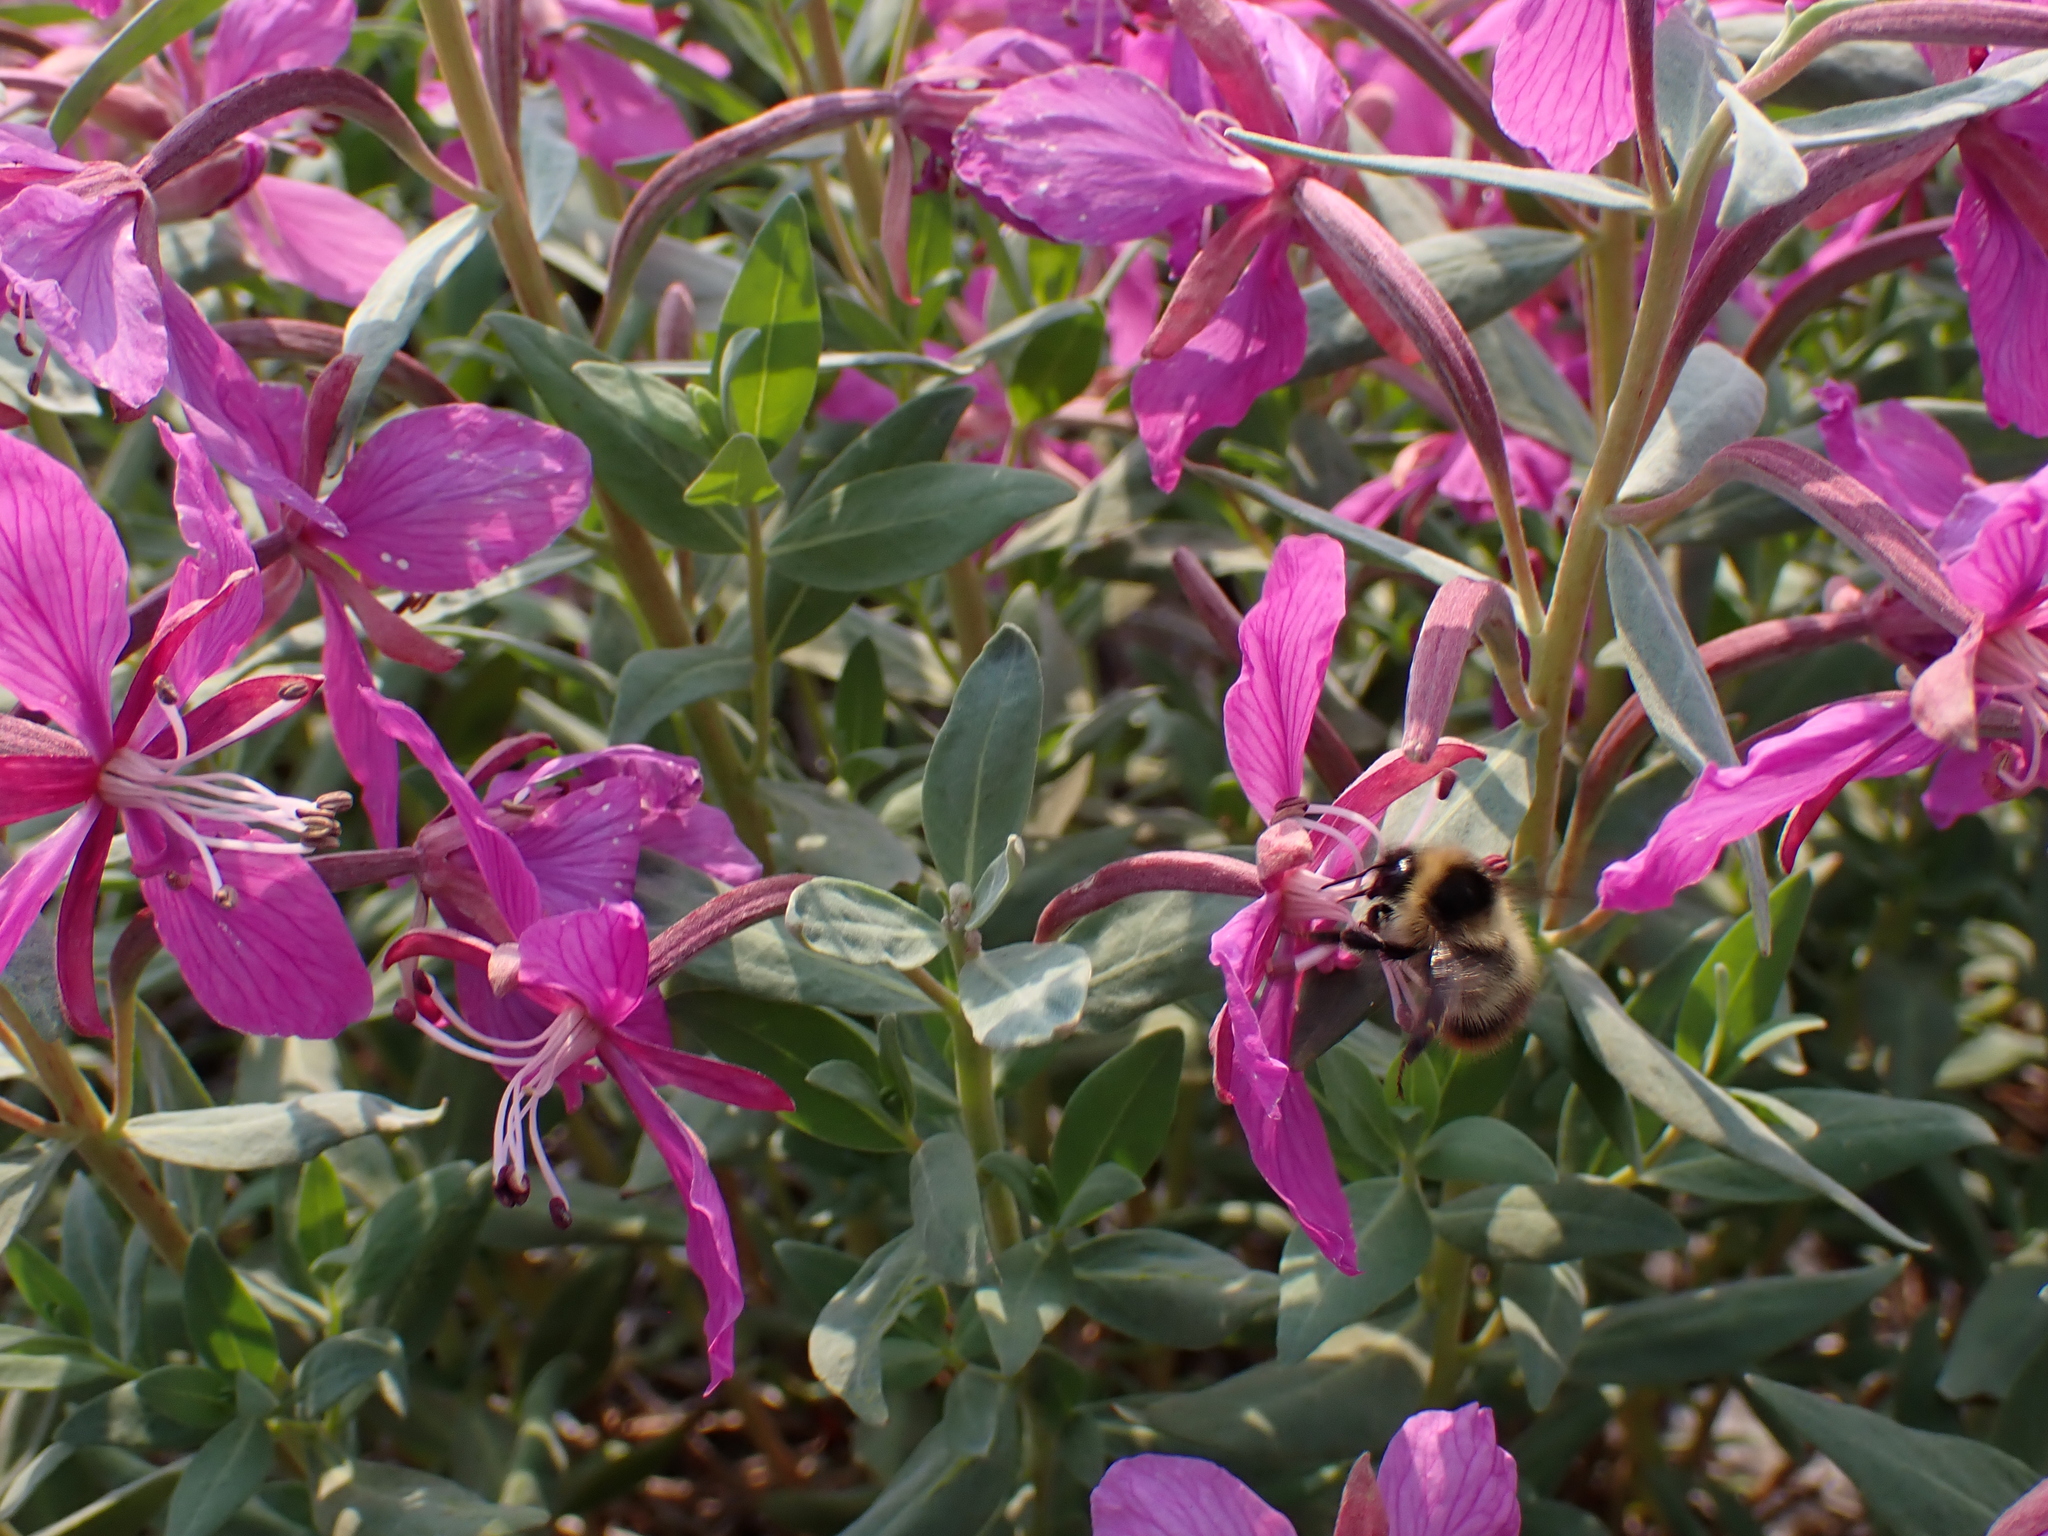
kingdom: Animalia
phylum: Arthropoda
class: Insecta
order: Hymenoptera
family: Apidae
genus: Bombus
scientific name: Bombus frigidus
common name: Frigid bumble bee
